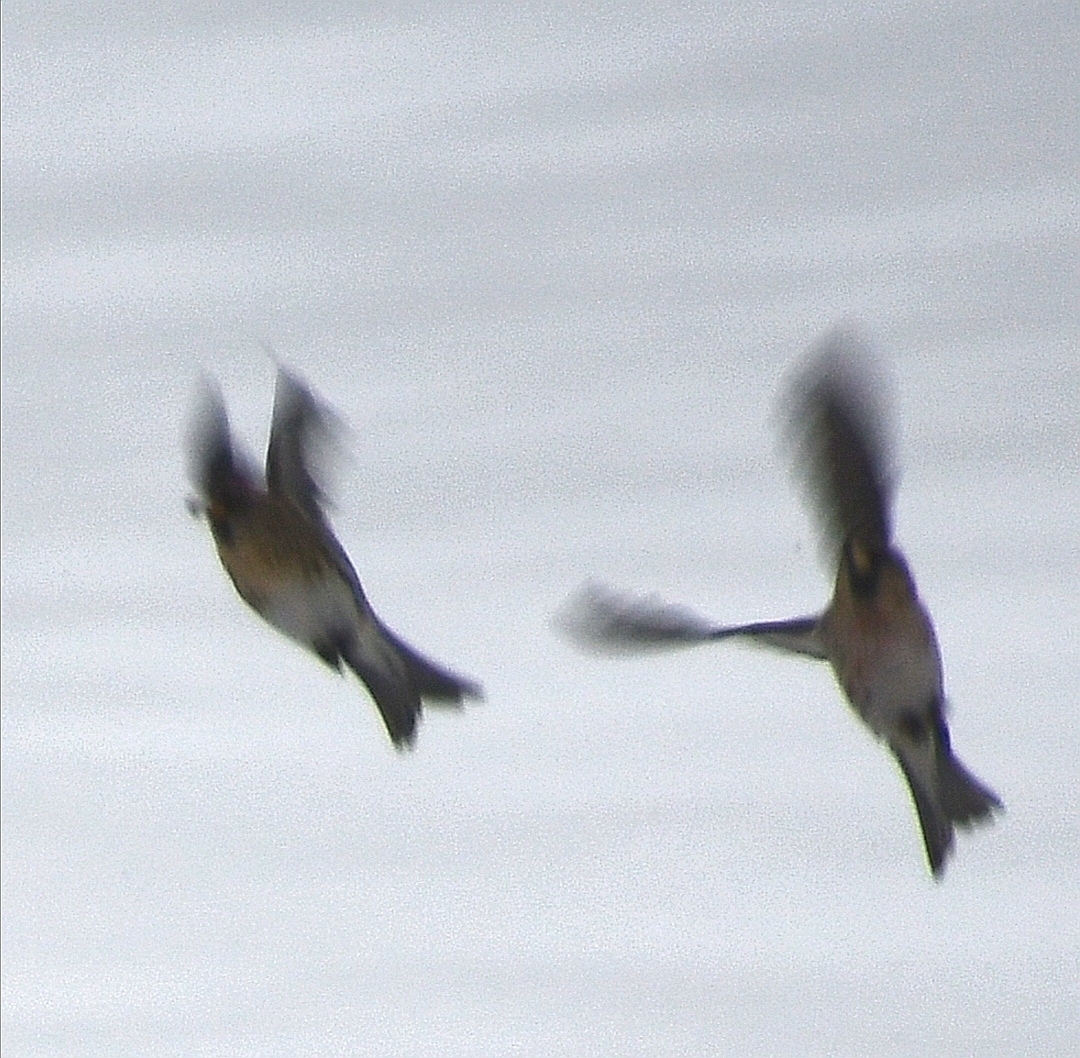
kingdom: Animalia
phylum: Chordata
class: Aves
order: Passeriformes
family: Fringillidae
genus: Acanthis
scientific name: Acanthis flammea
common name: Common redpoll
